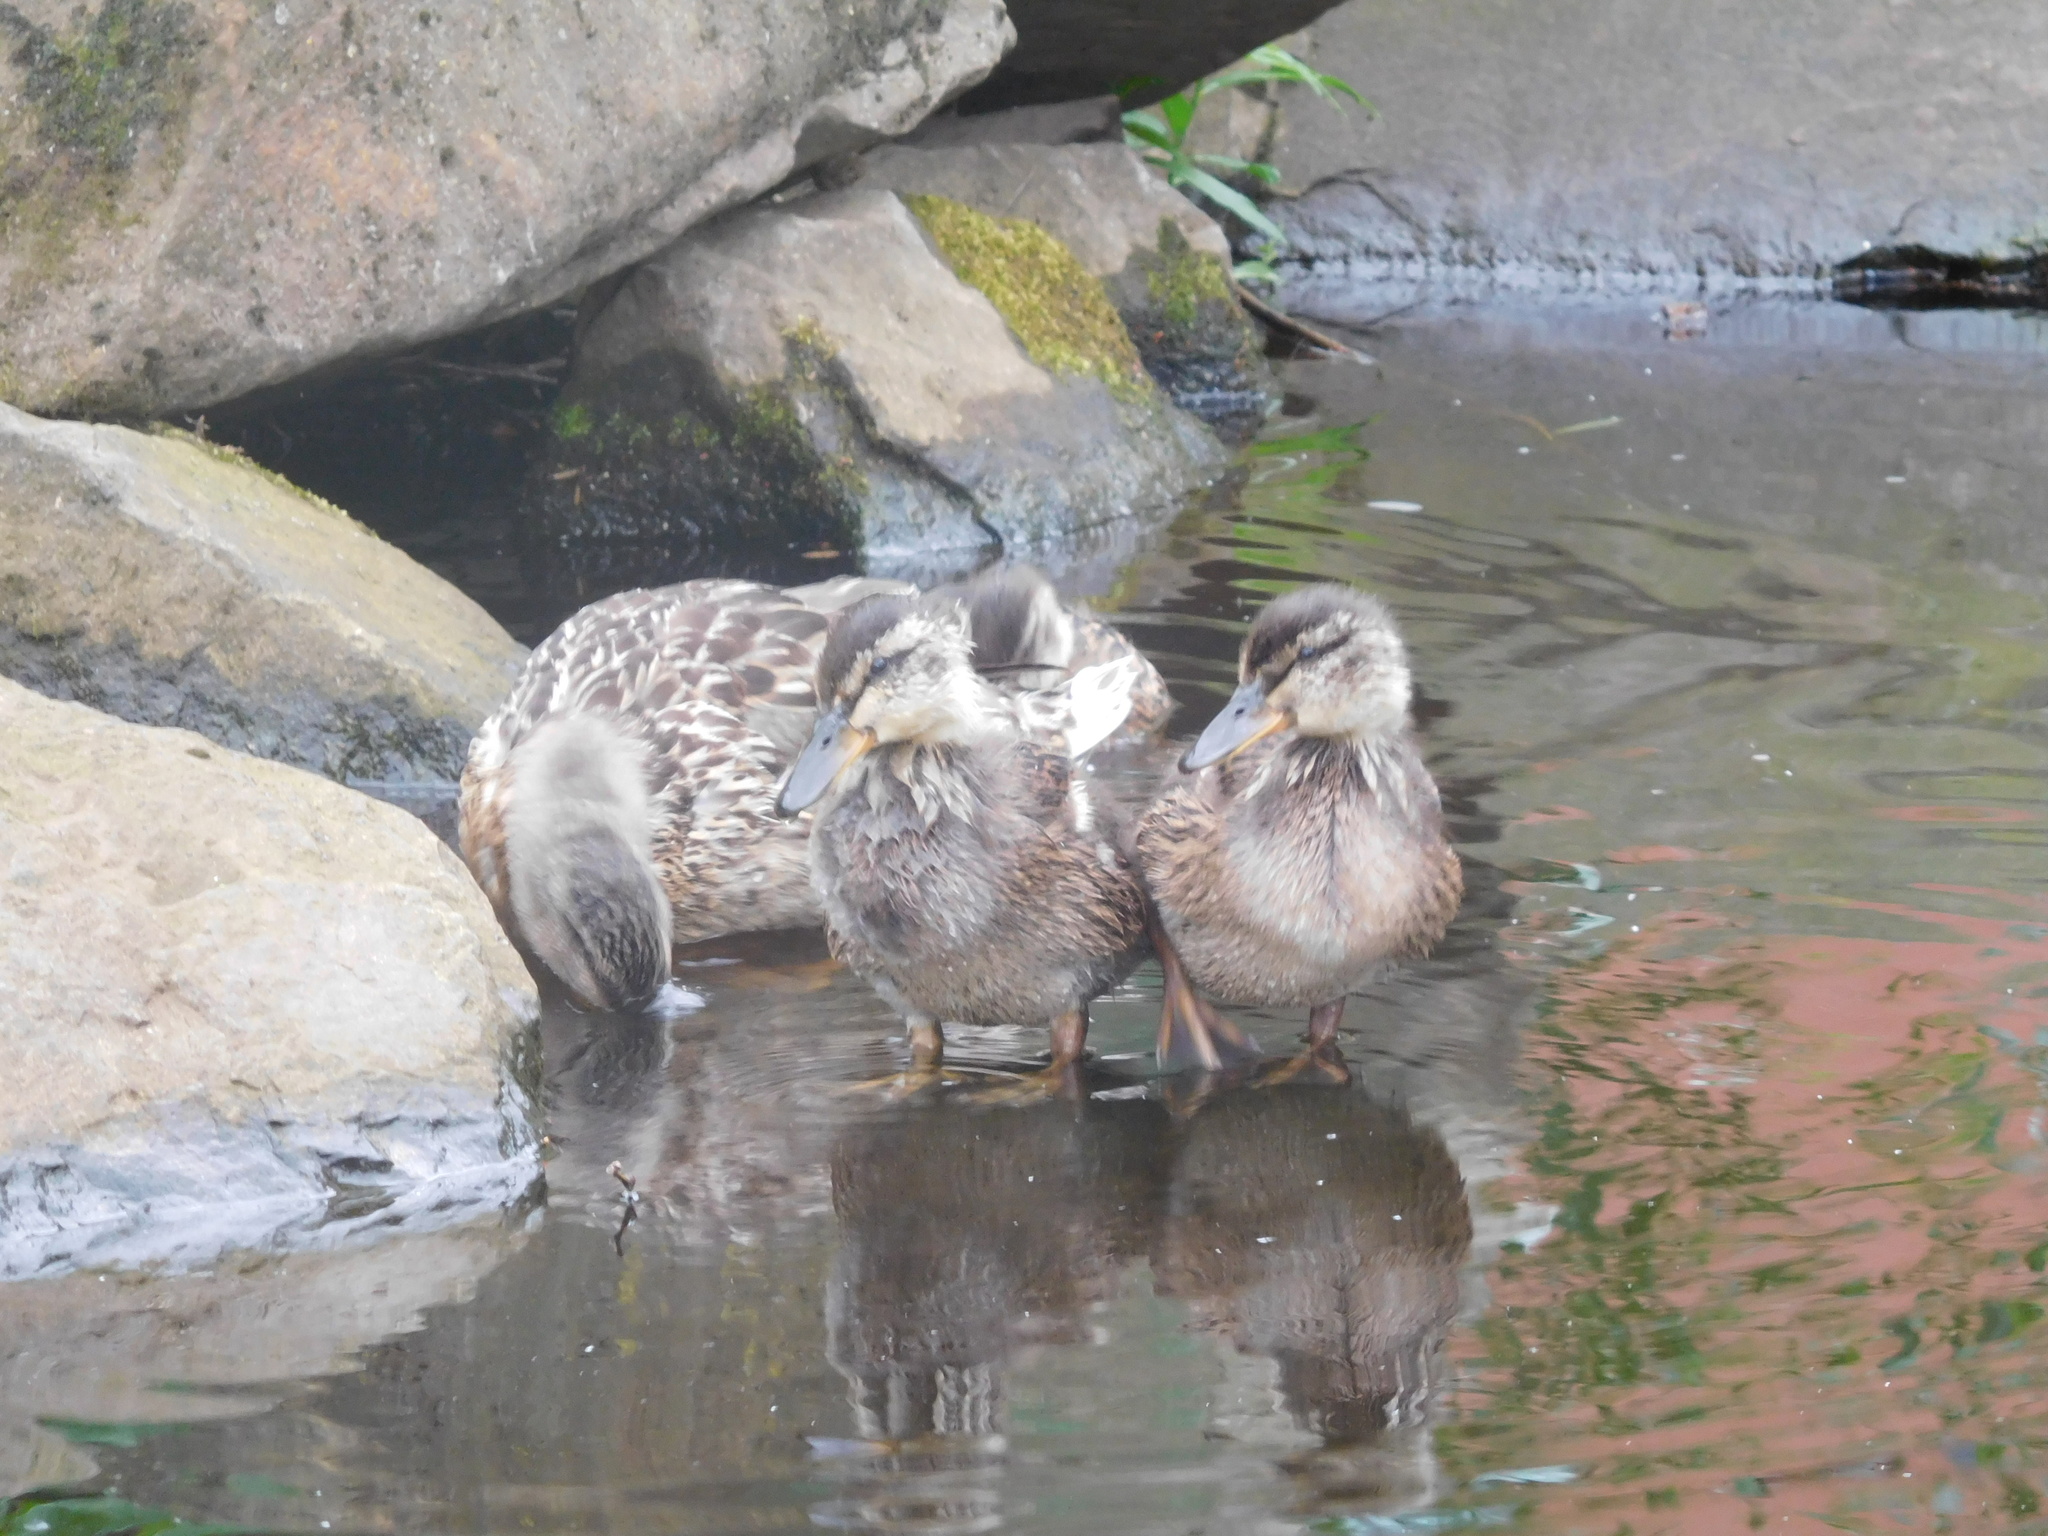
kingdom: Animalia
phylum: Chordata
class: Aves
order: Anseriformes
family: Anatidae
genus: Anas
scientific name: Anas platyrhynchos
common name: Mallard
